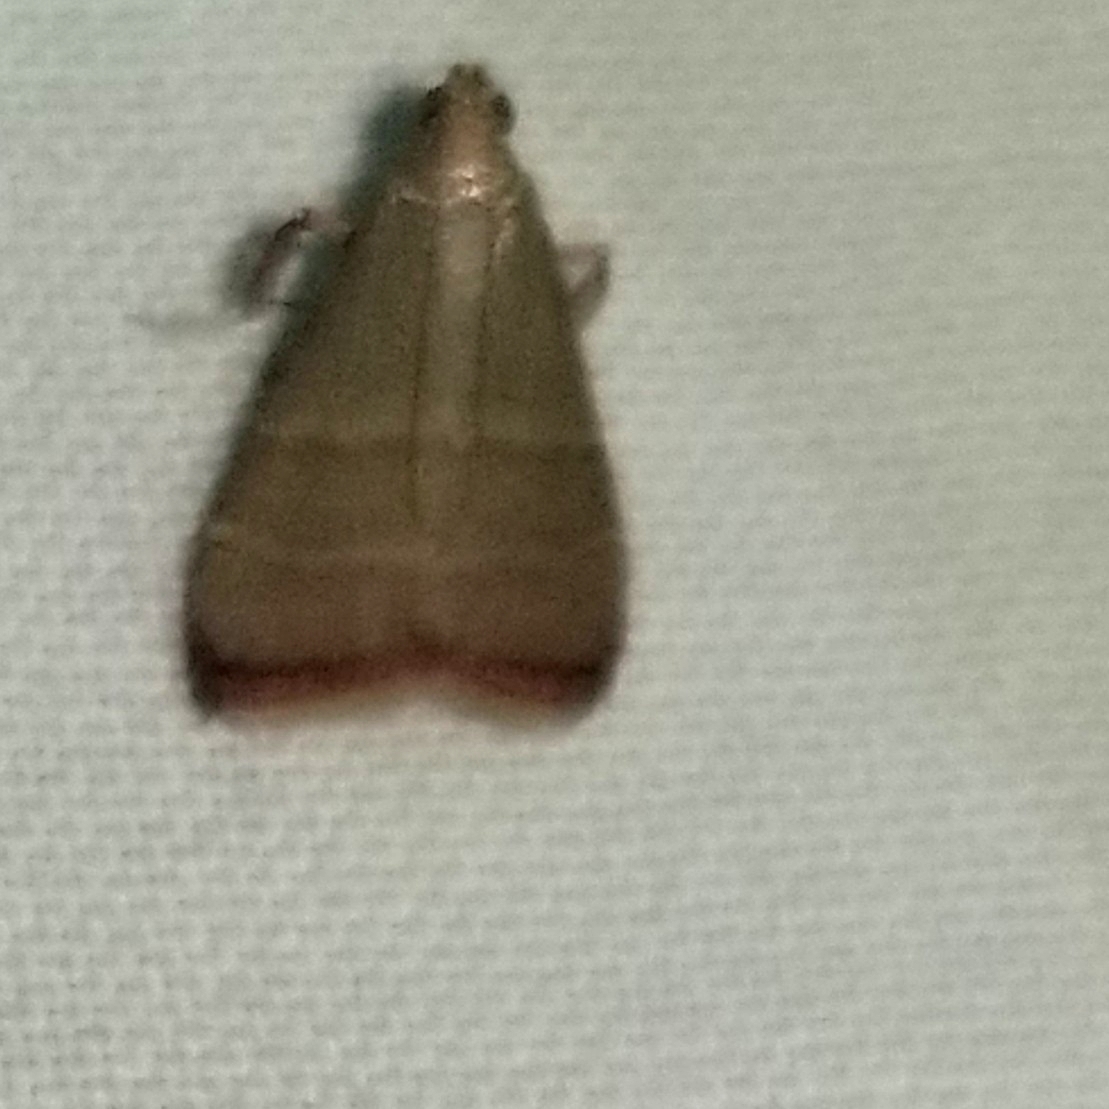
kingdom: Animalia
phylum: Arthropoda
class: Insecta
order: Lepidoptera
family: Pyralidae
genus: Arta
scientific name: Arta olivalis
